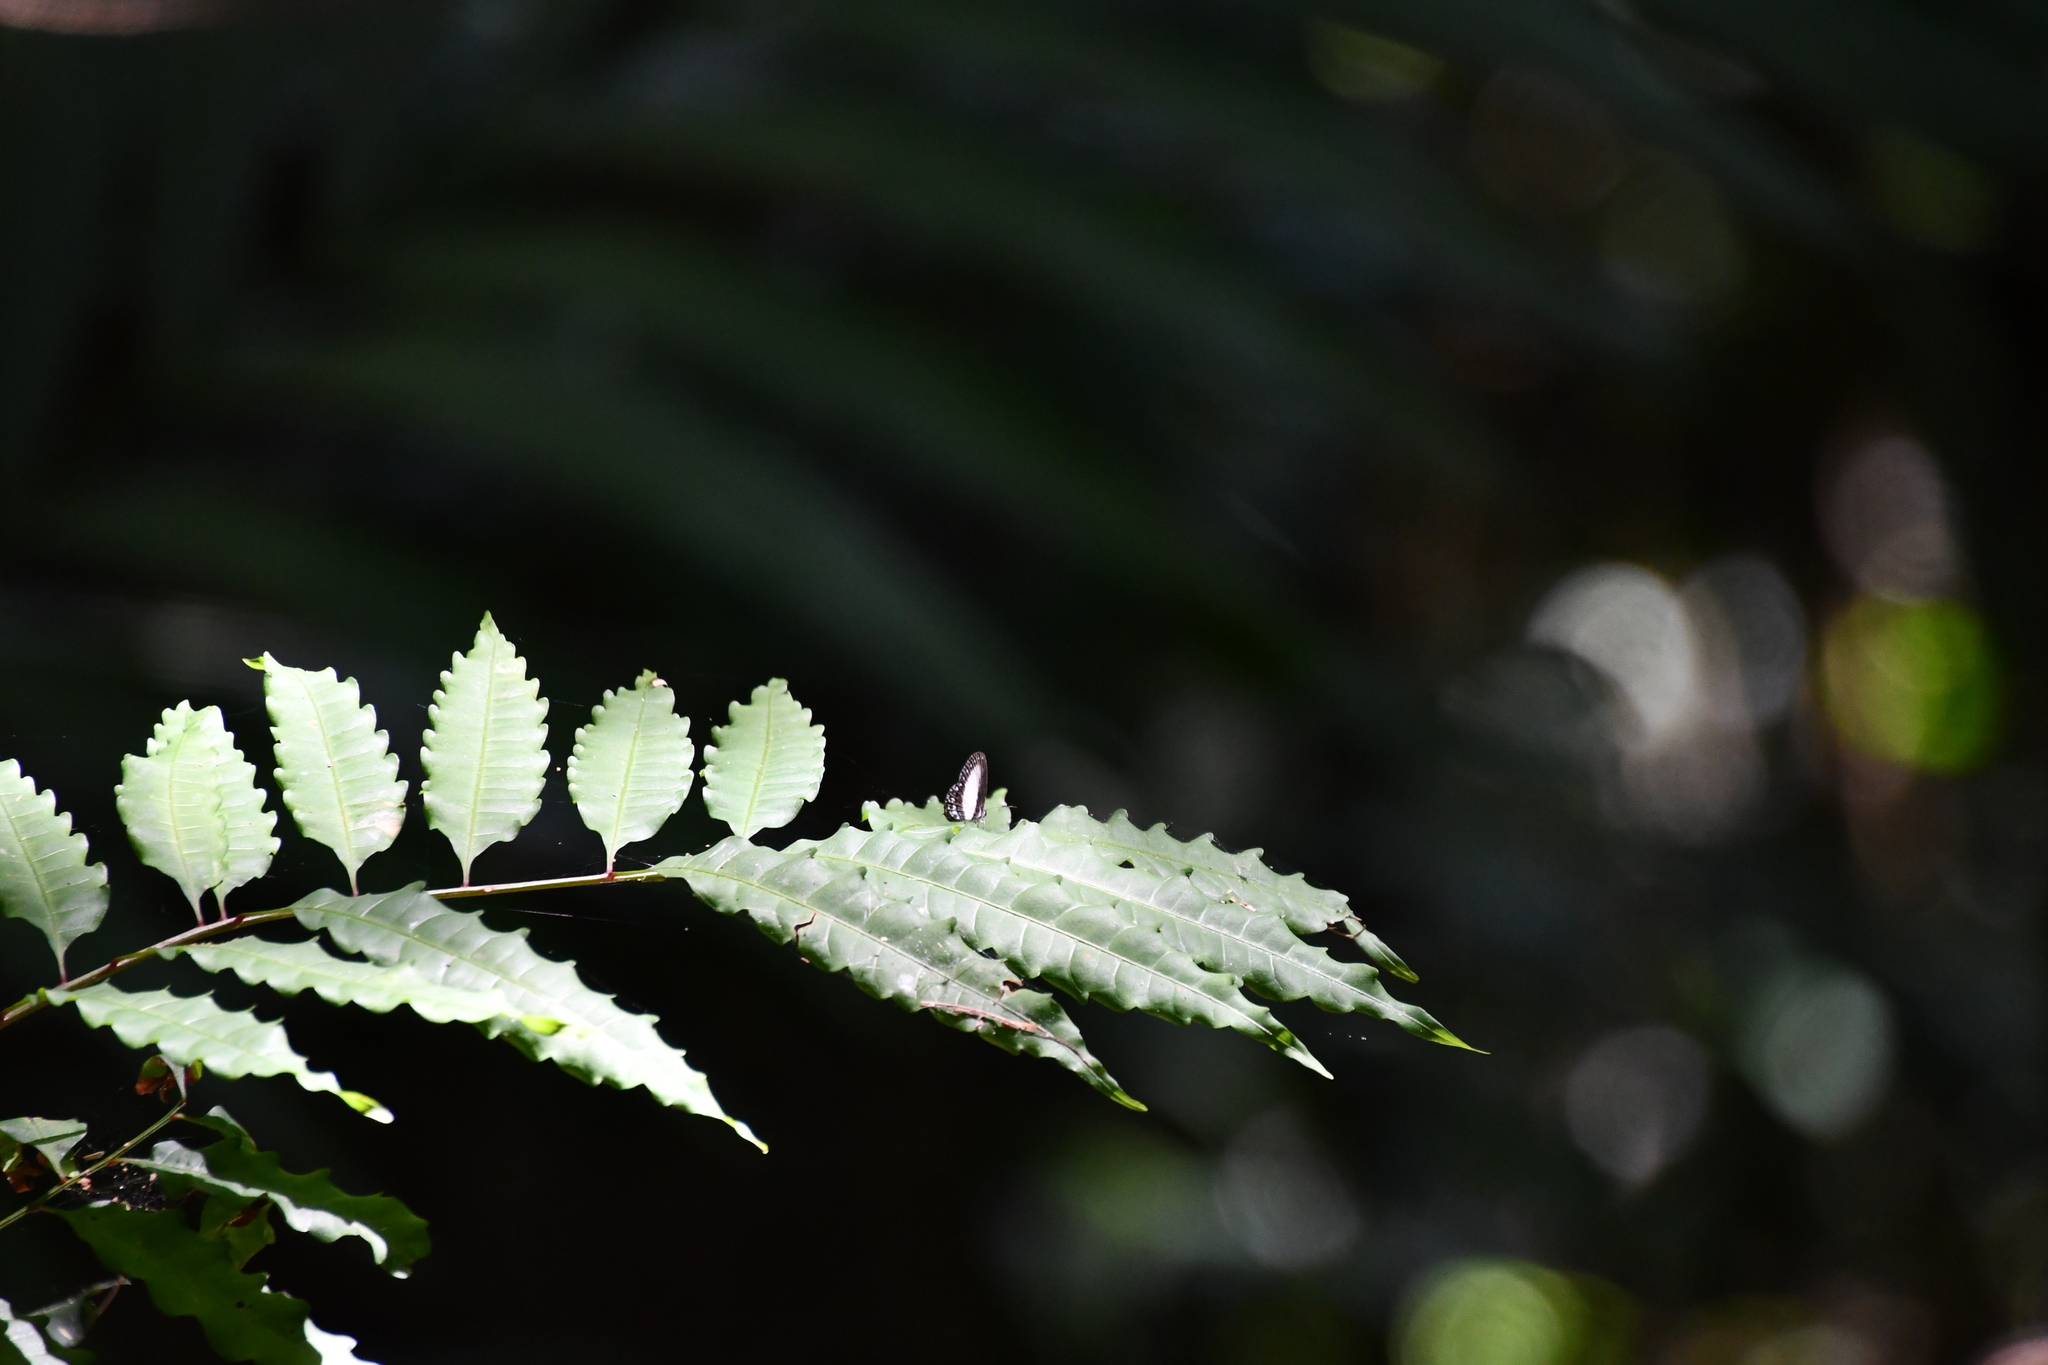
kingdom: Animalia
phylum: Arthropoda
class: Insecta
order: Lepidoptera
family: Lycaenidae
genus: Jamides
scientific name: Jamides aleuas
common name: White-banded cerulean
